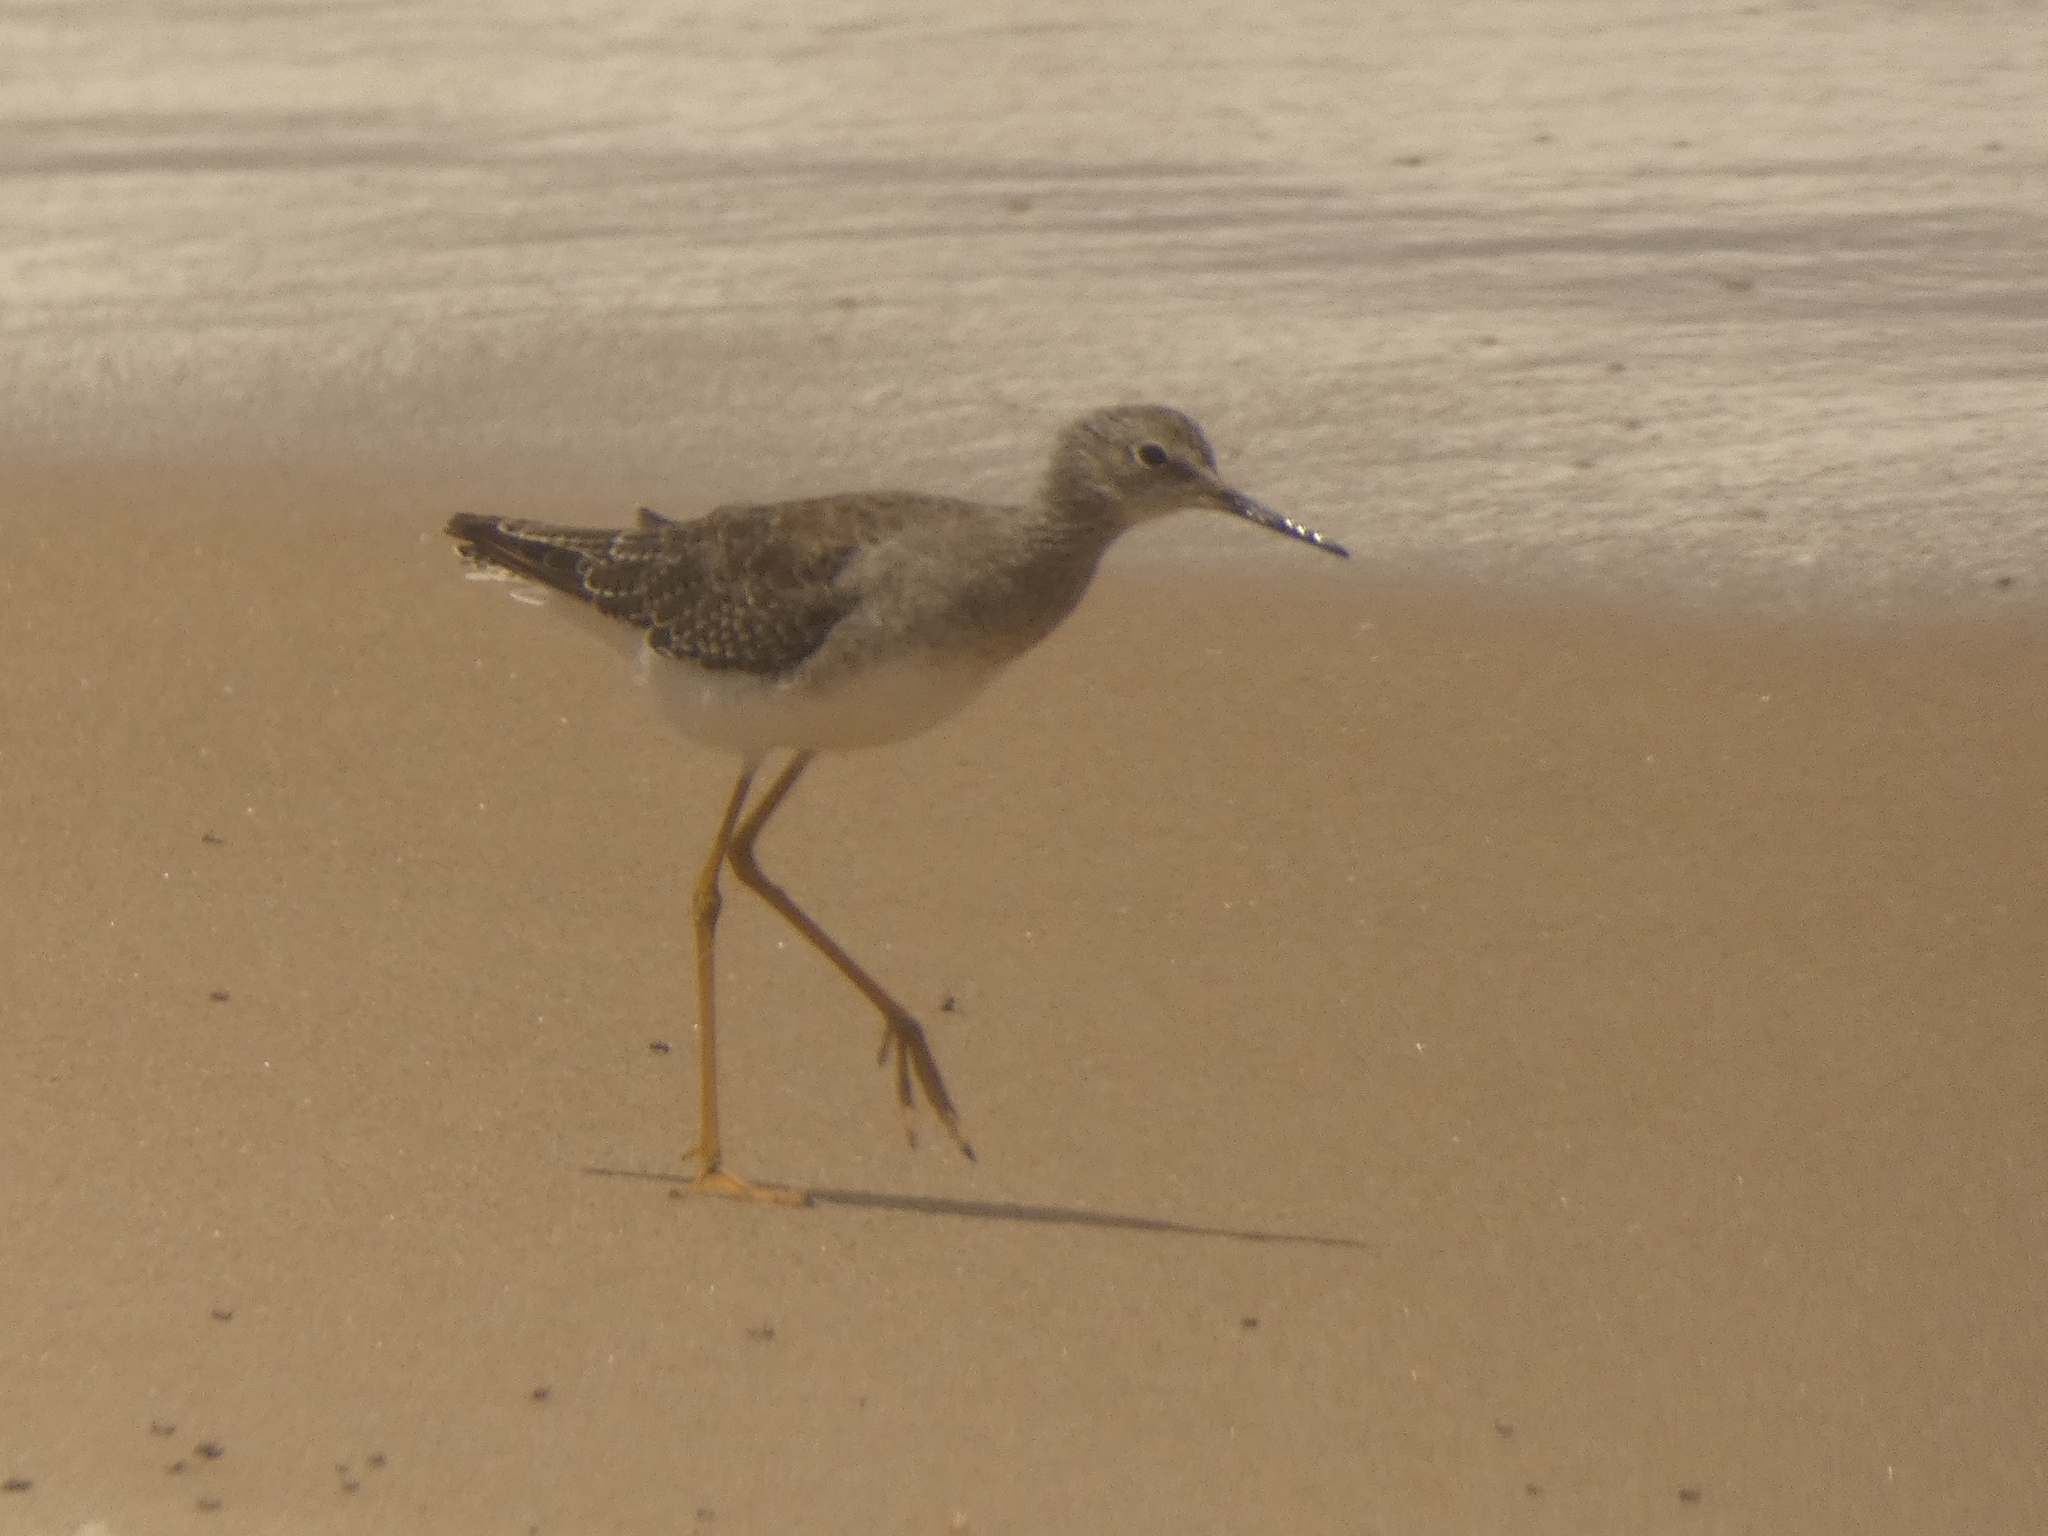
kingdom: Animalia
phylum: Chordata
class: Aves
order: Charadriiformes
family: Scolopacidae
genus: Tringa
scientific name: Tringa flavipes
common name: Lesser yellowlegs
